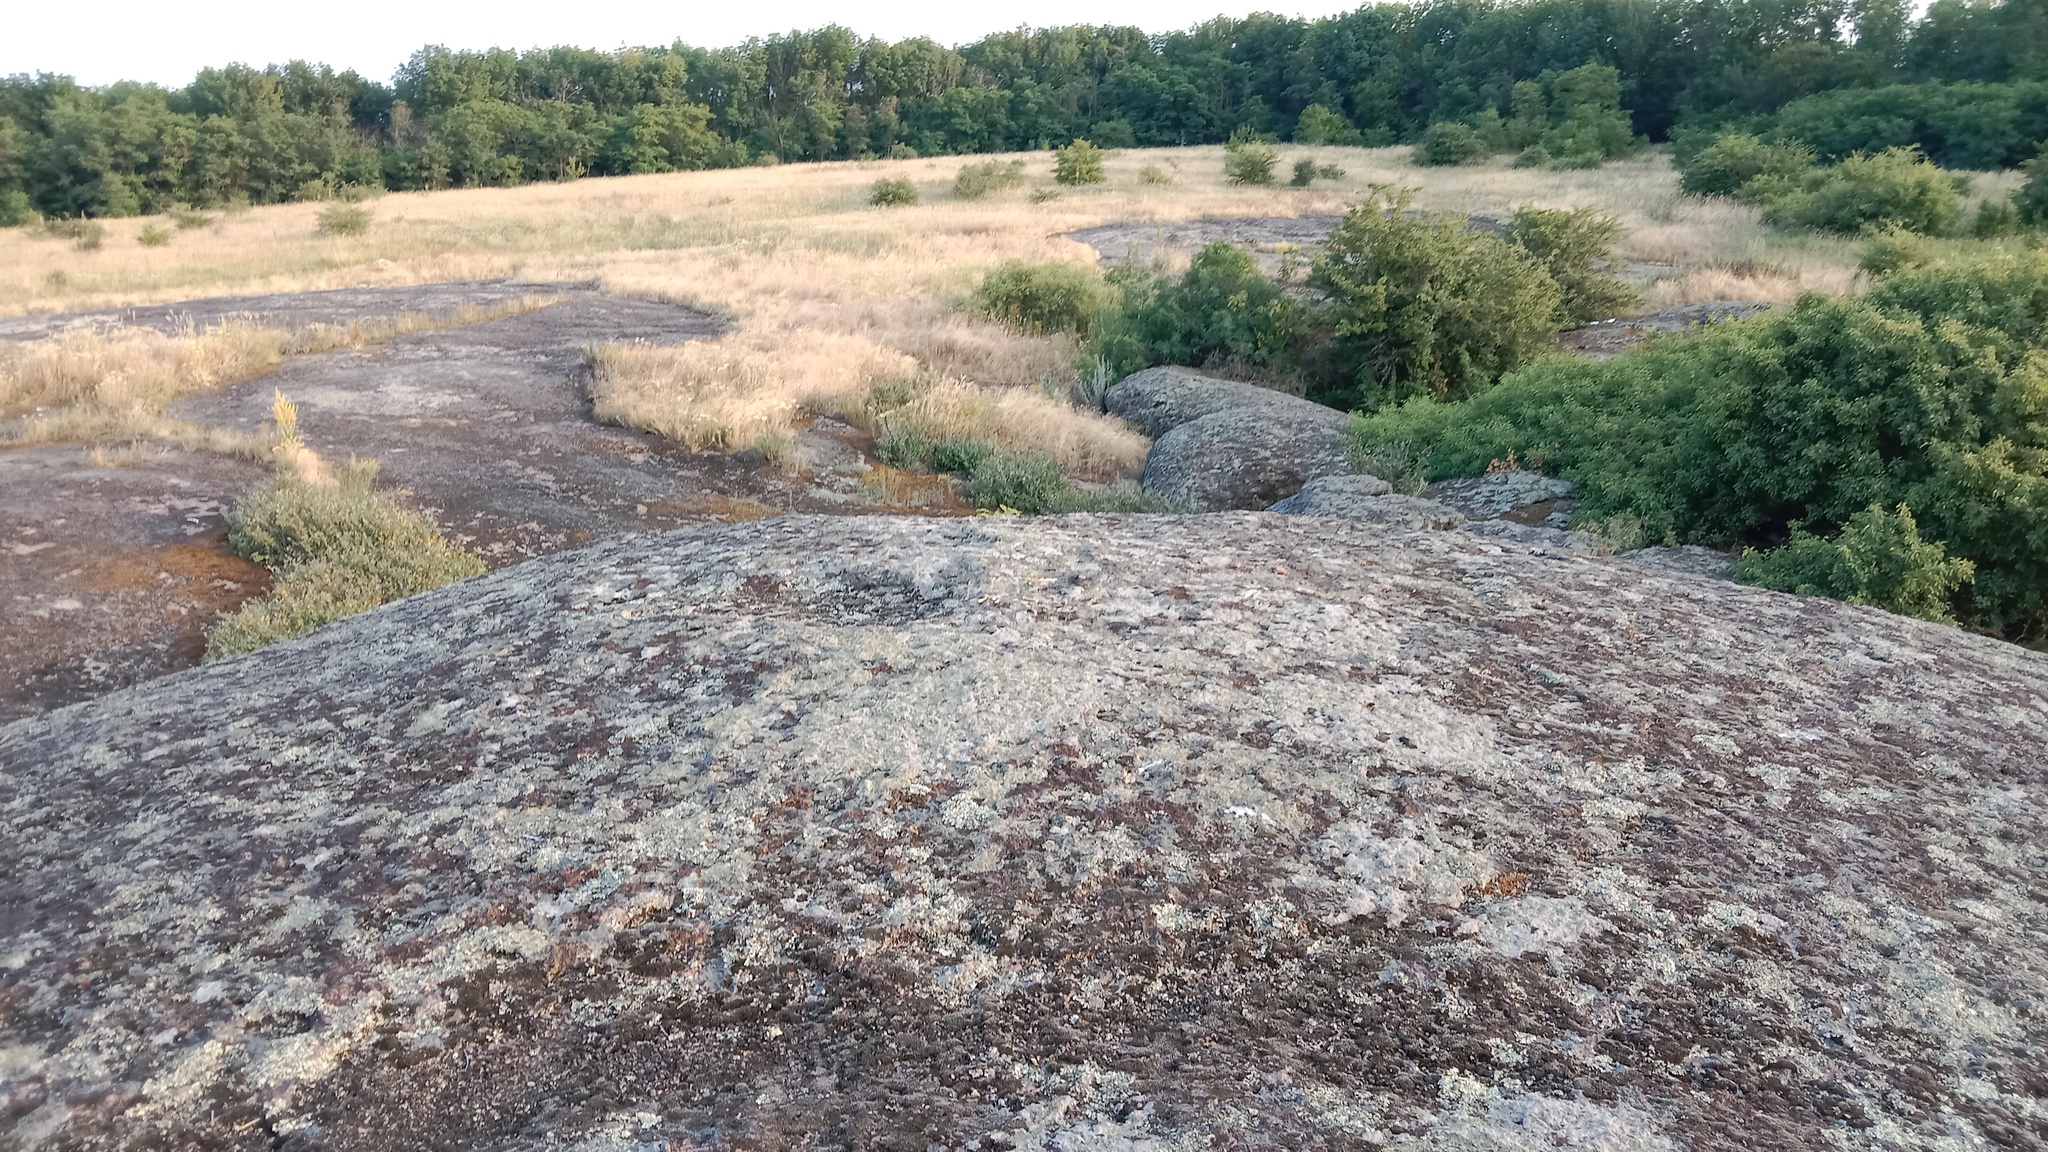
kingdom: Fungi
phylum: Ascomycota
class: Lecanoromycetes
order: Lecanorales
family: Parmeliaceae
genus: Xanthoparmelia
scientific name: Xanthoparmelia stenophylla
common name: Shingled rock shield
